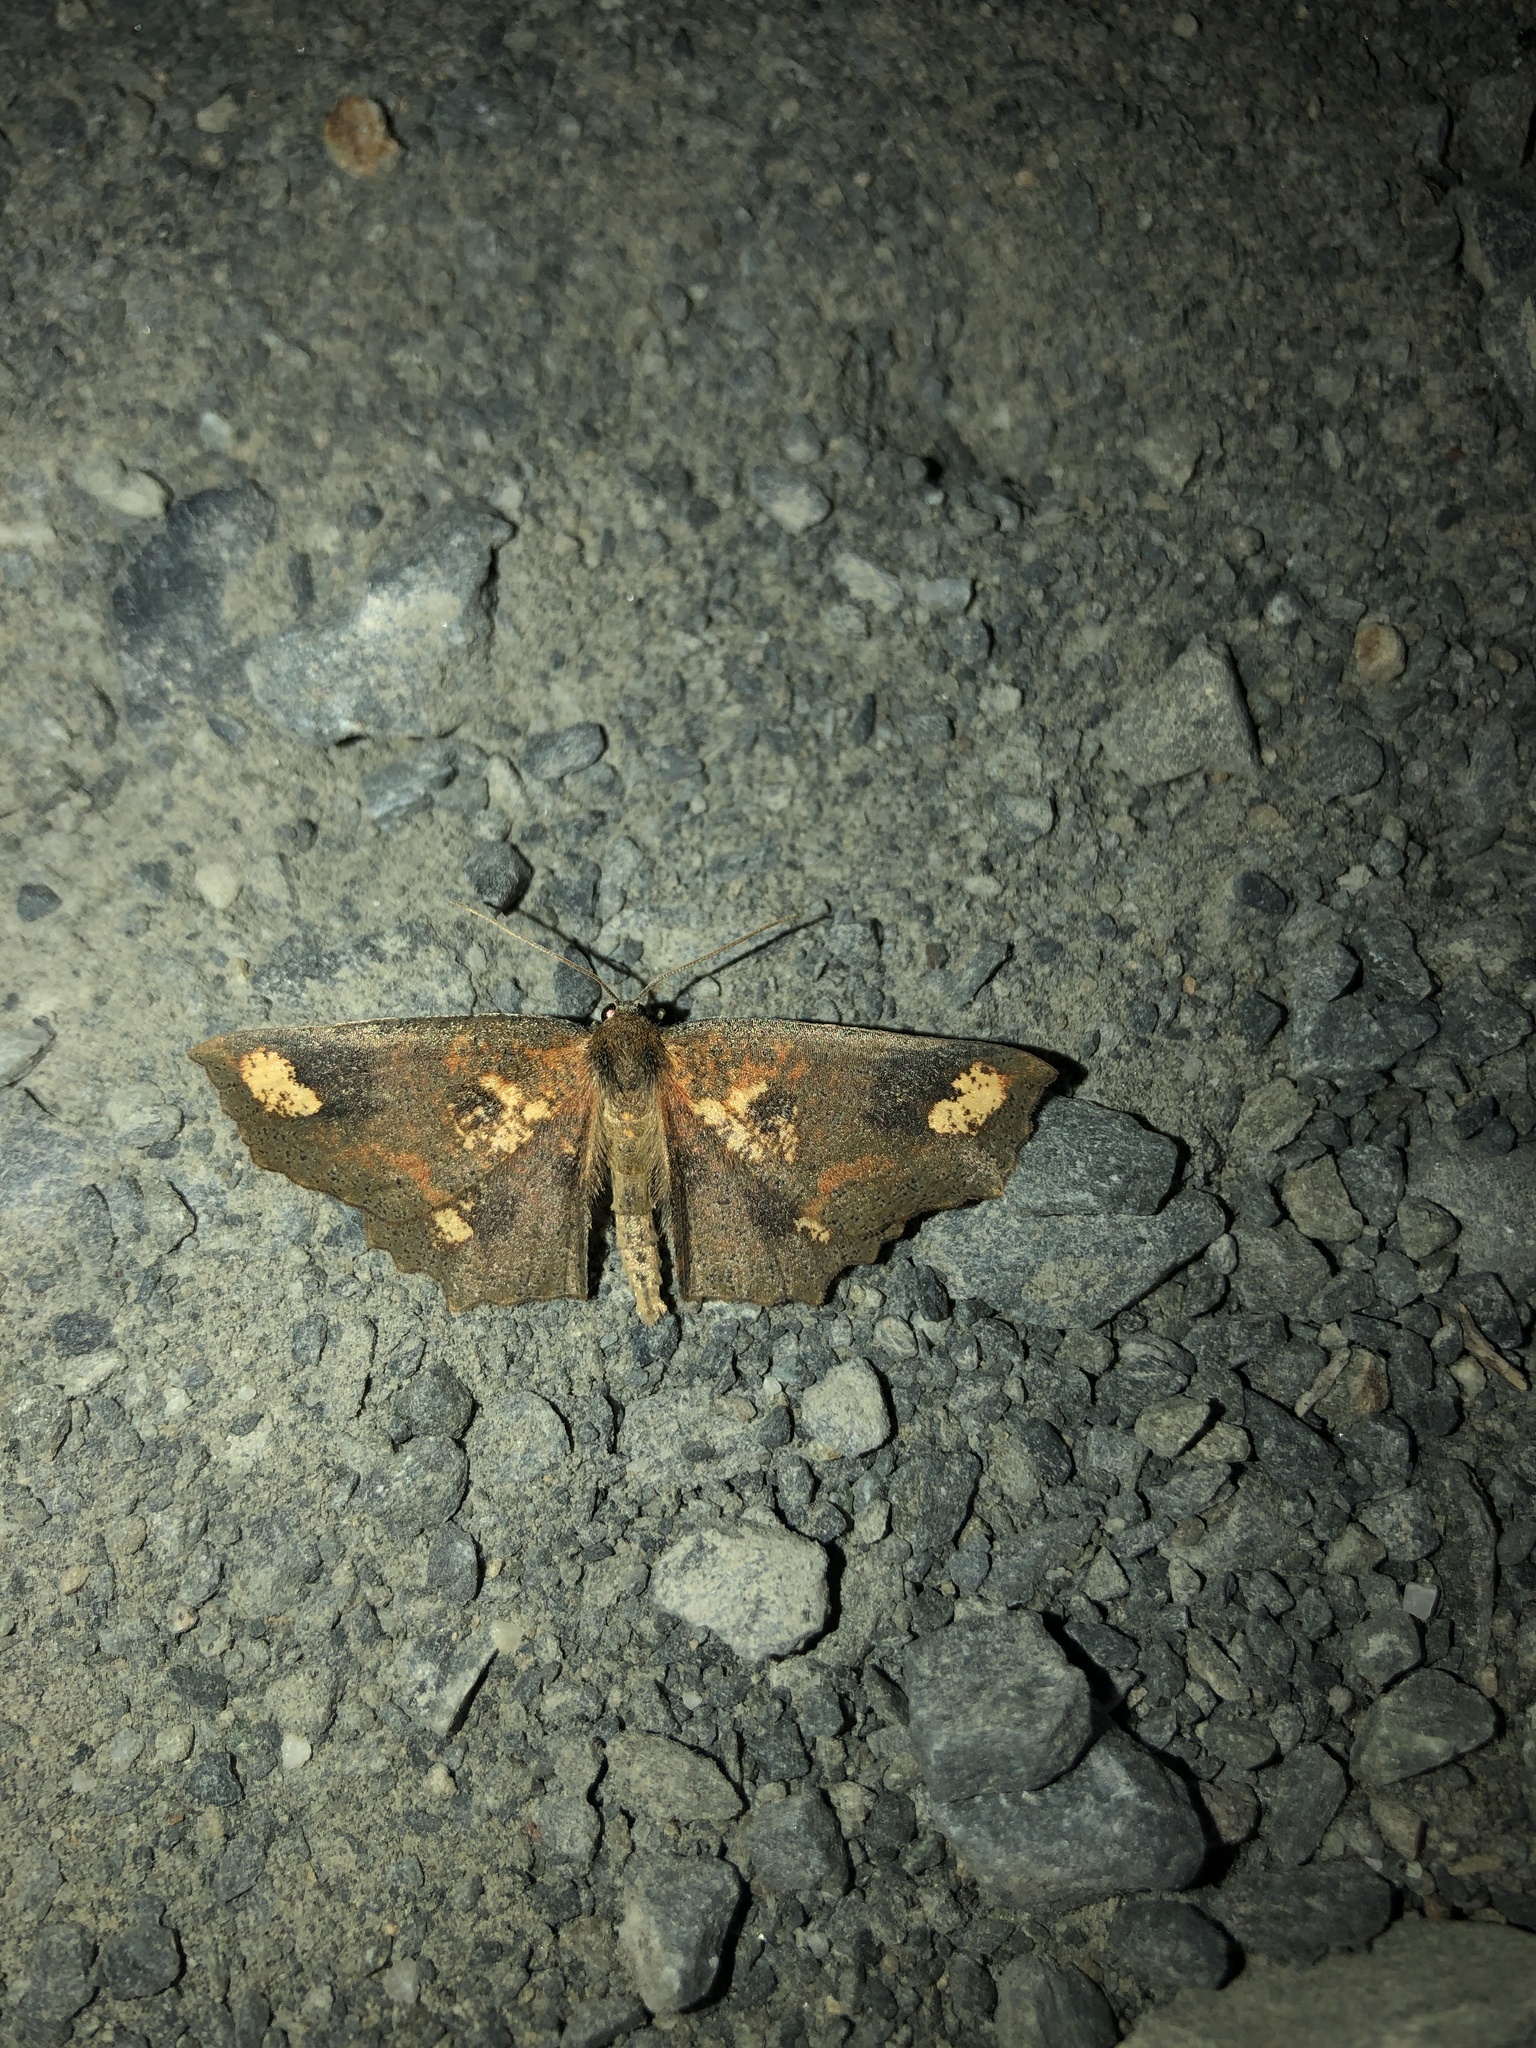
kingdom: Animalia
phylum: Arthropoda
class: Insecta
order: Lepidoptera
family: Geometridae
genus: Xyridacma
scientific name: Xyridacma ustaria
